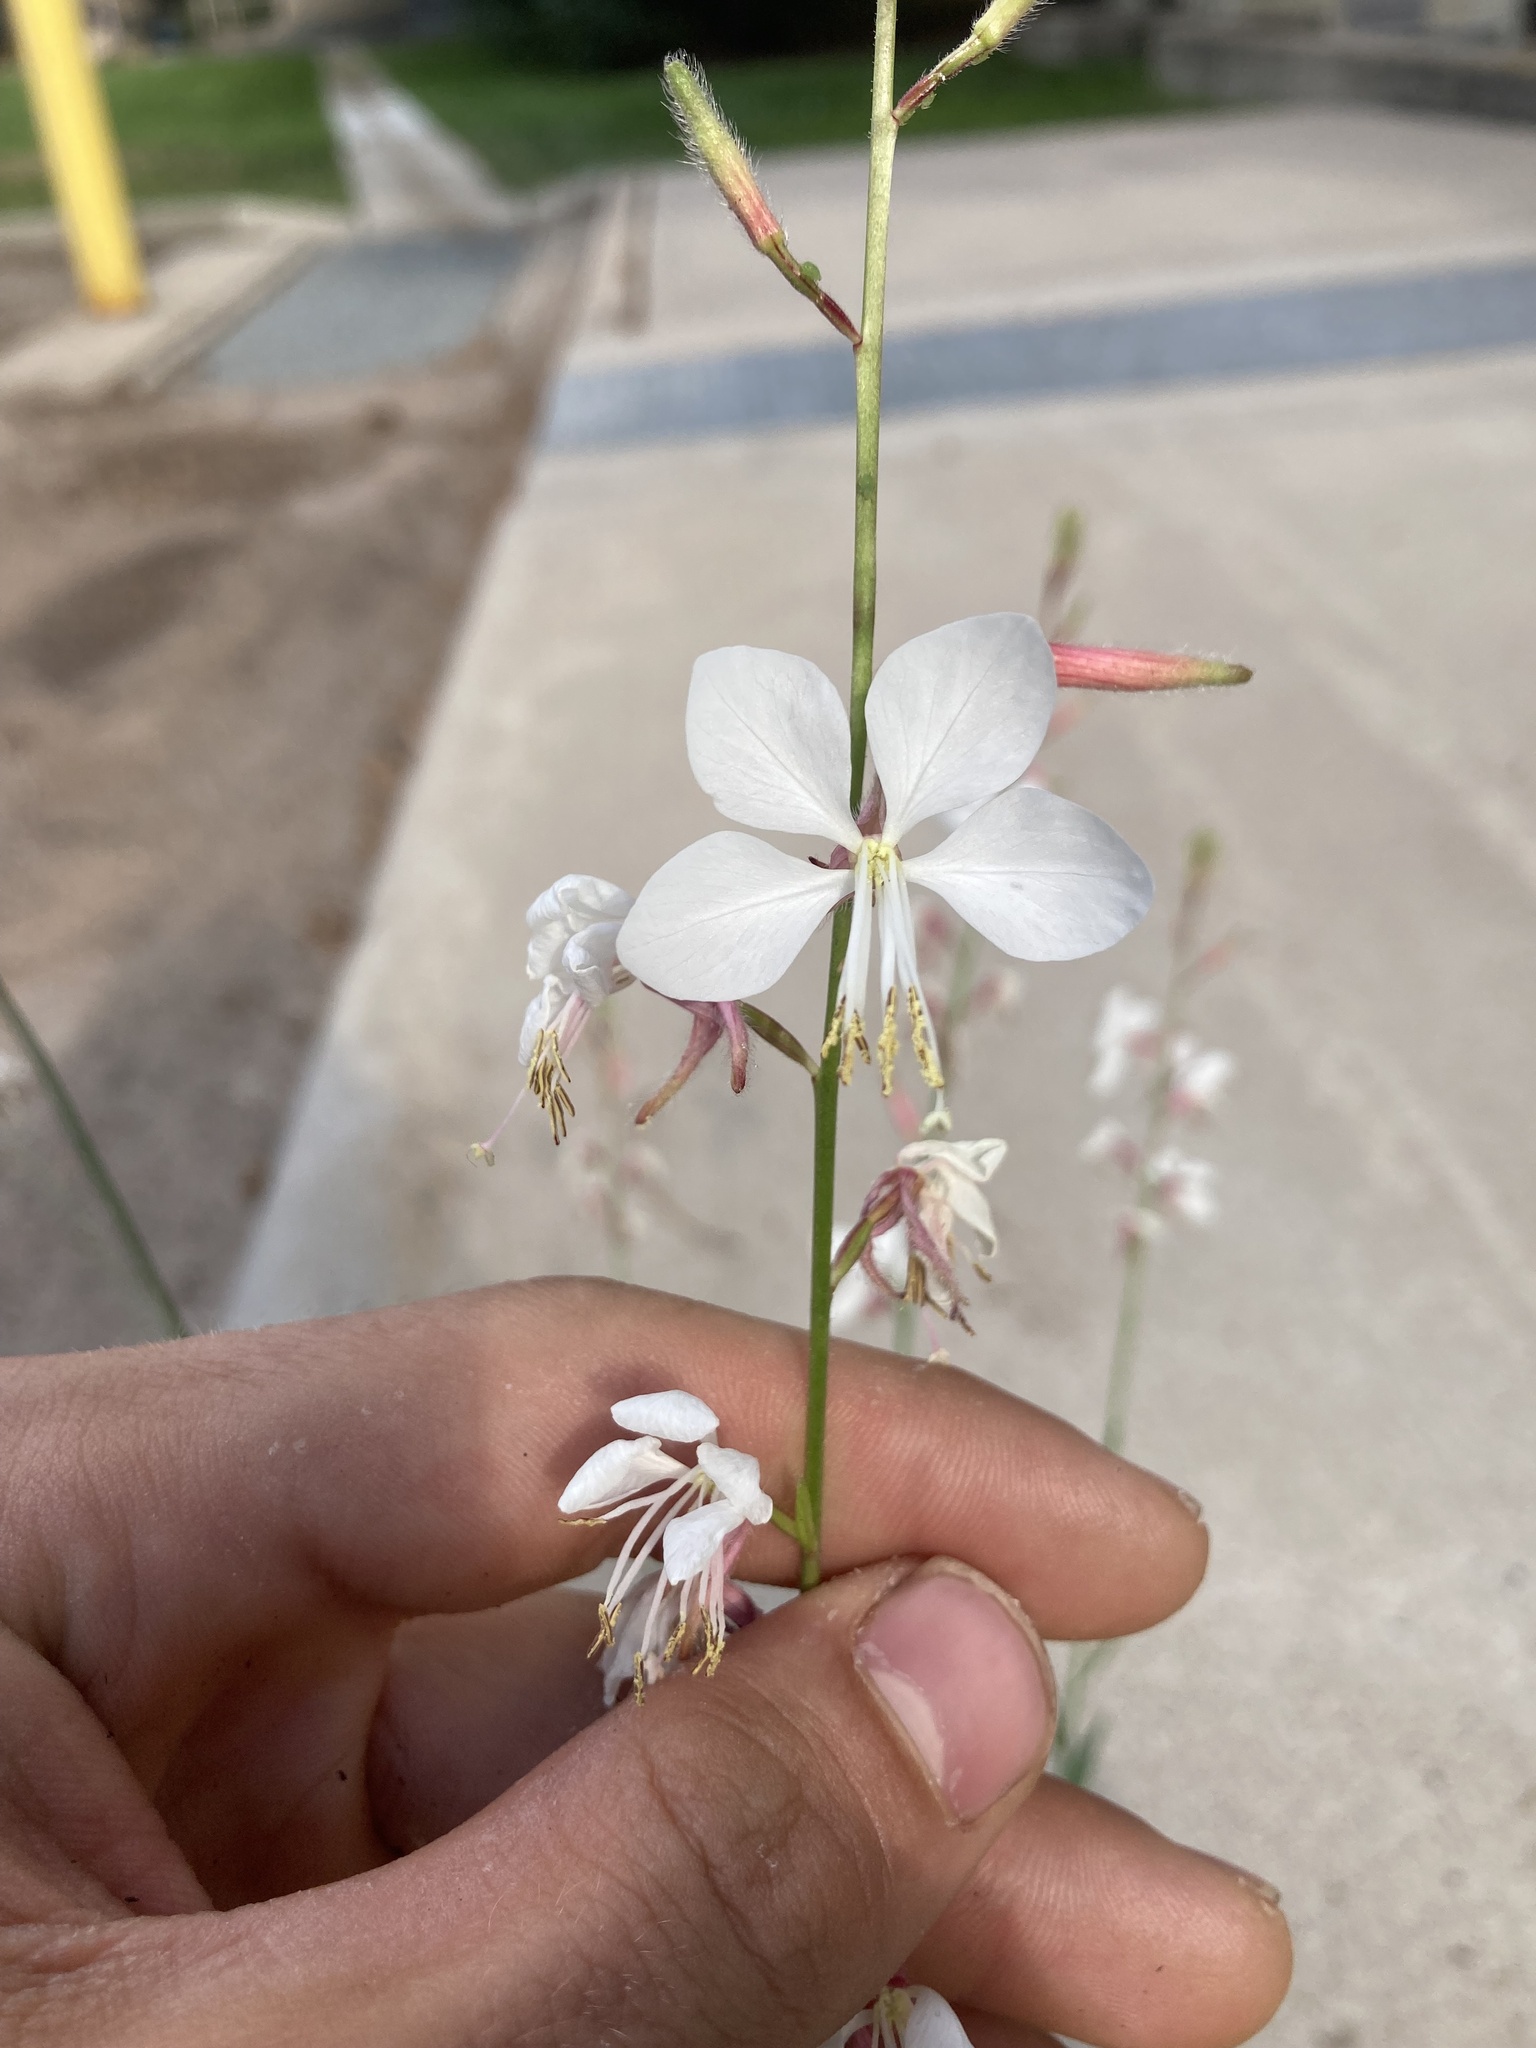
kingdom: Plantae
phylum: Tracheophyta
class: Magnoliopsida
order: Myrtales
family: Onagraceae
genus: Oenothera
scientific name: Oenothera lindheimeri
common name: Lindheimer's beeblossom
